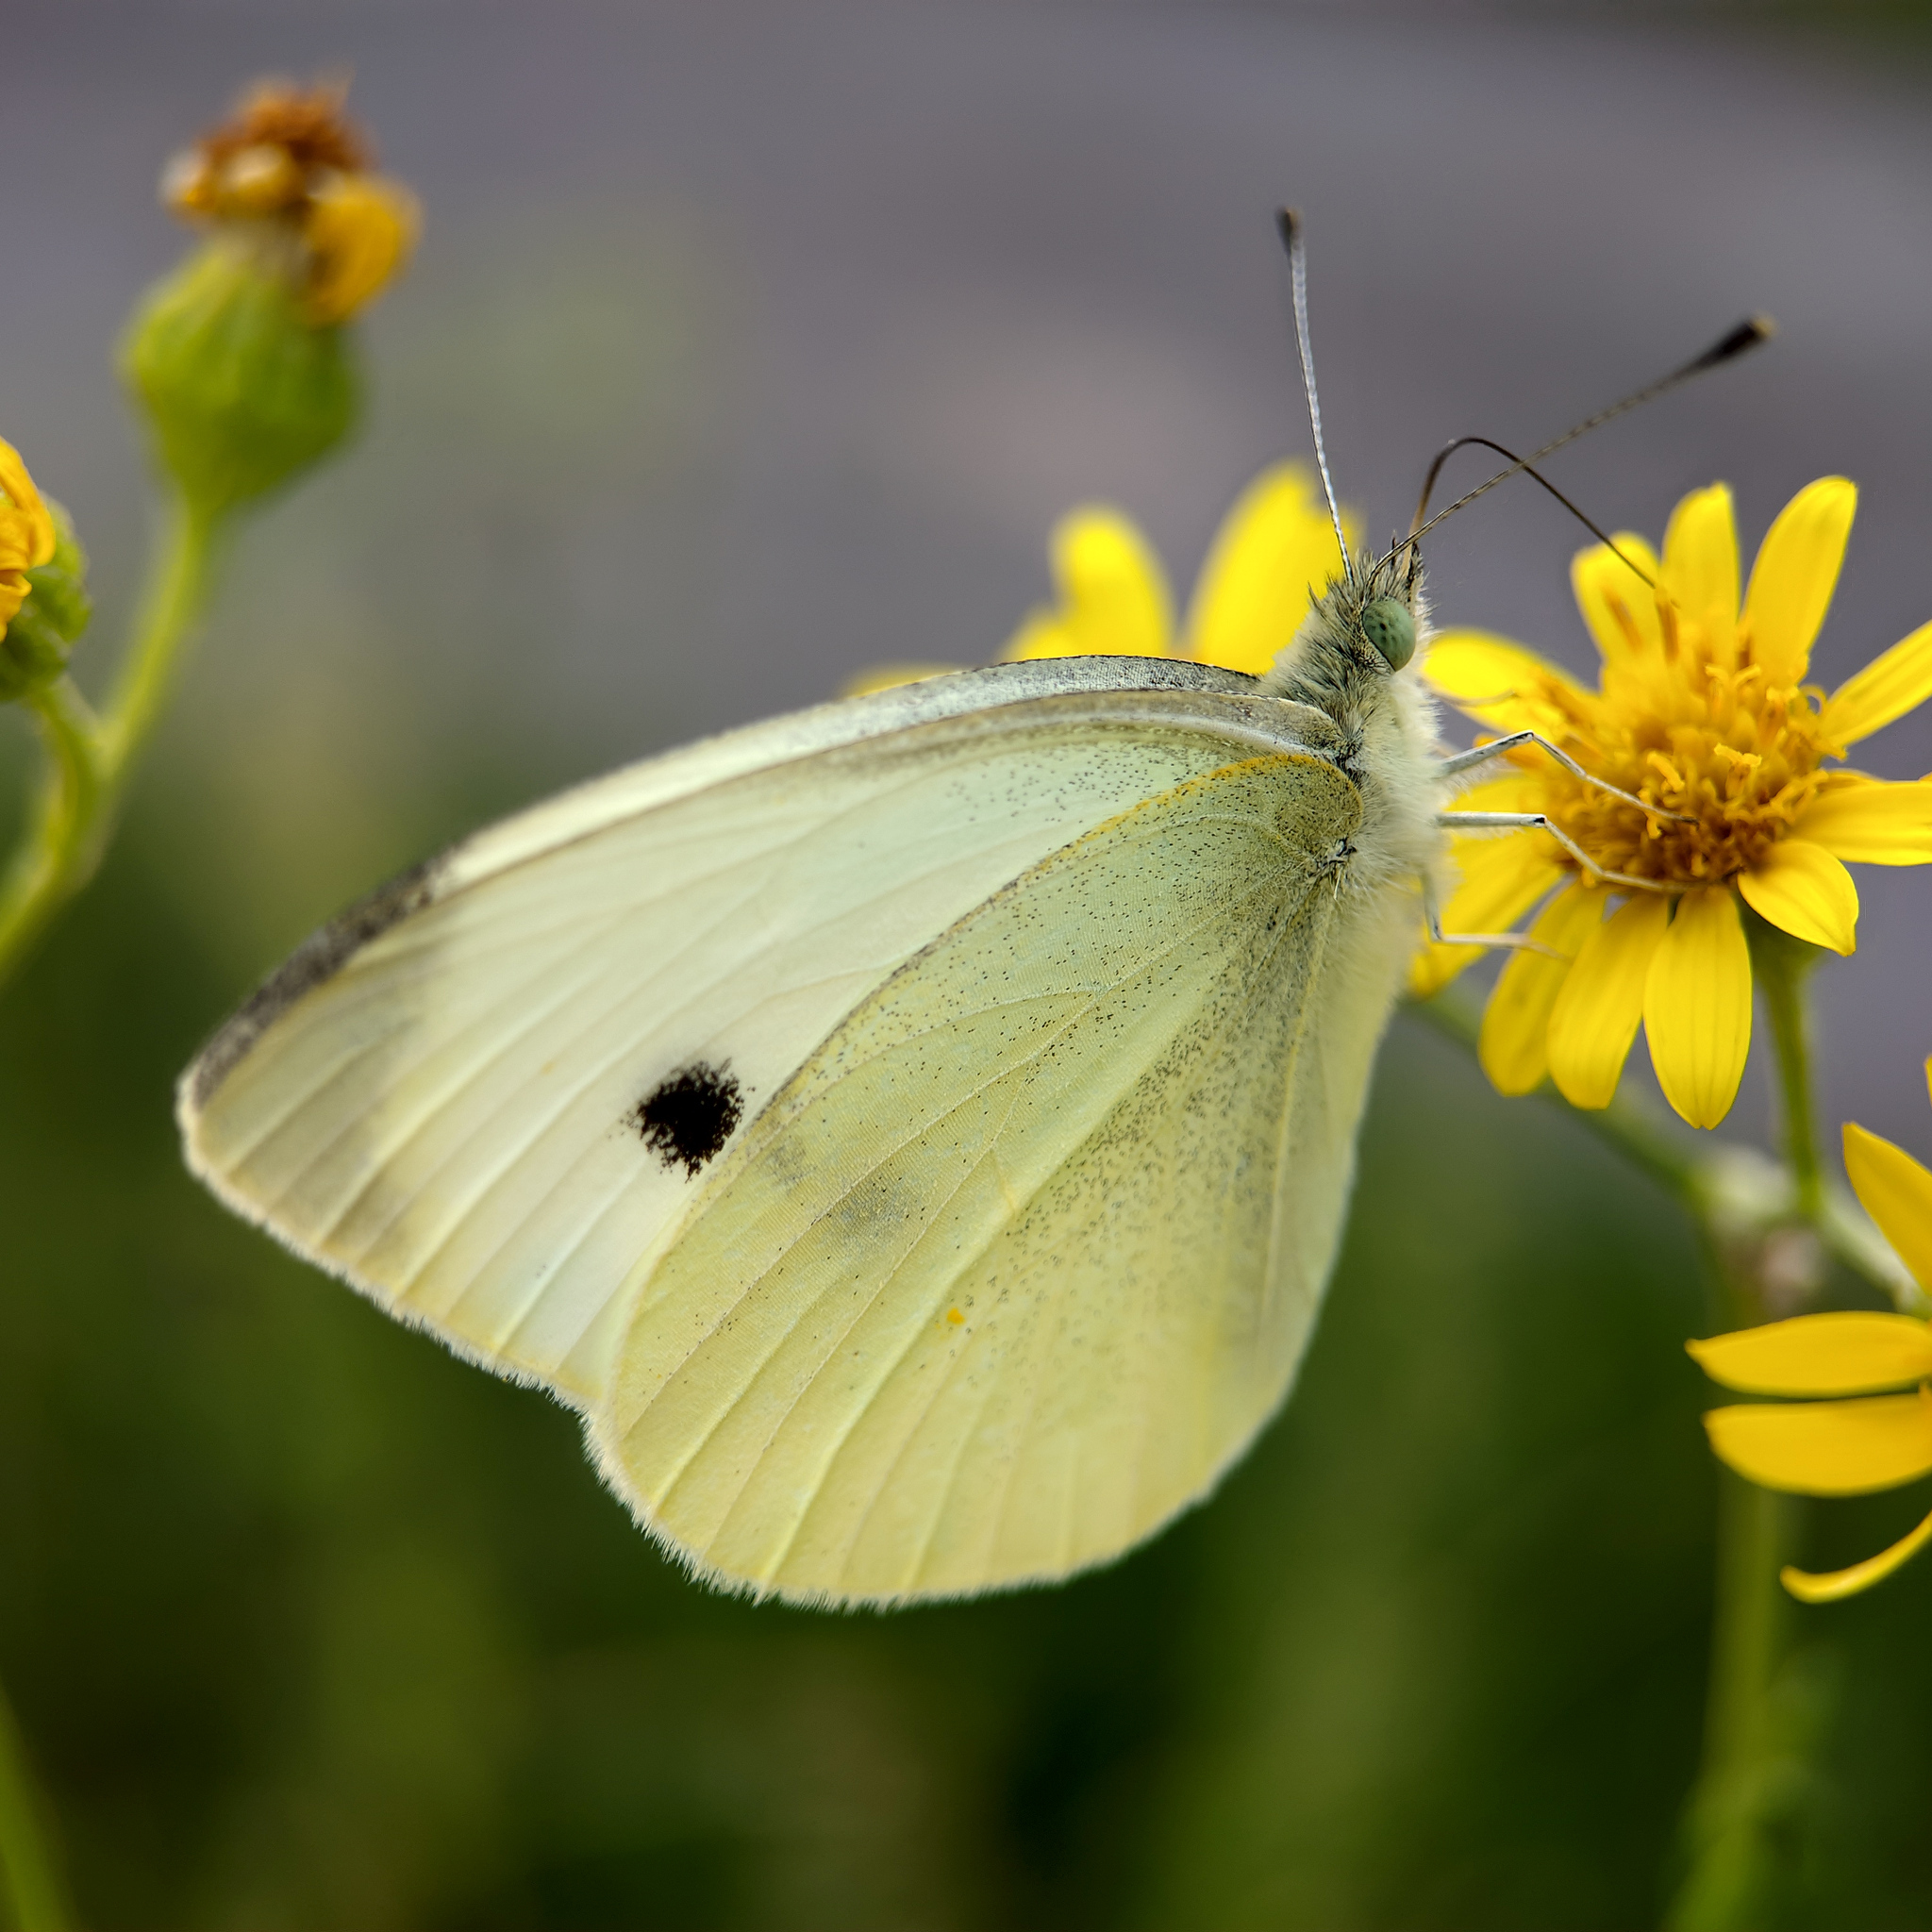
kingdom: Animalia
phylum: Arthropoda
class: Insecta
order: Lepidoptera
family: Pieridae
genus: Pieris
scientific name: Pieris rapae
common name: Small white
